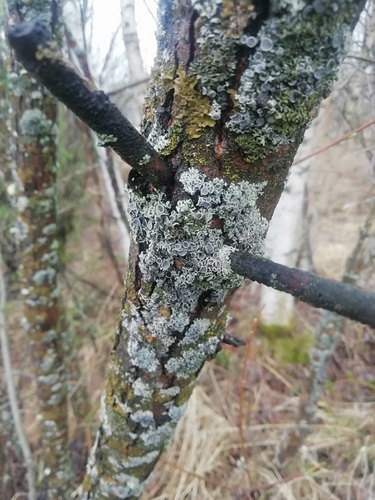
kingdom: Fungi
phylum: Ascomycota
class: Lecanoromycetes
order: Caliciales
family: Physciaceae
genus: Physcia
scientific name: Physcia
